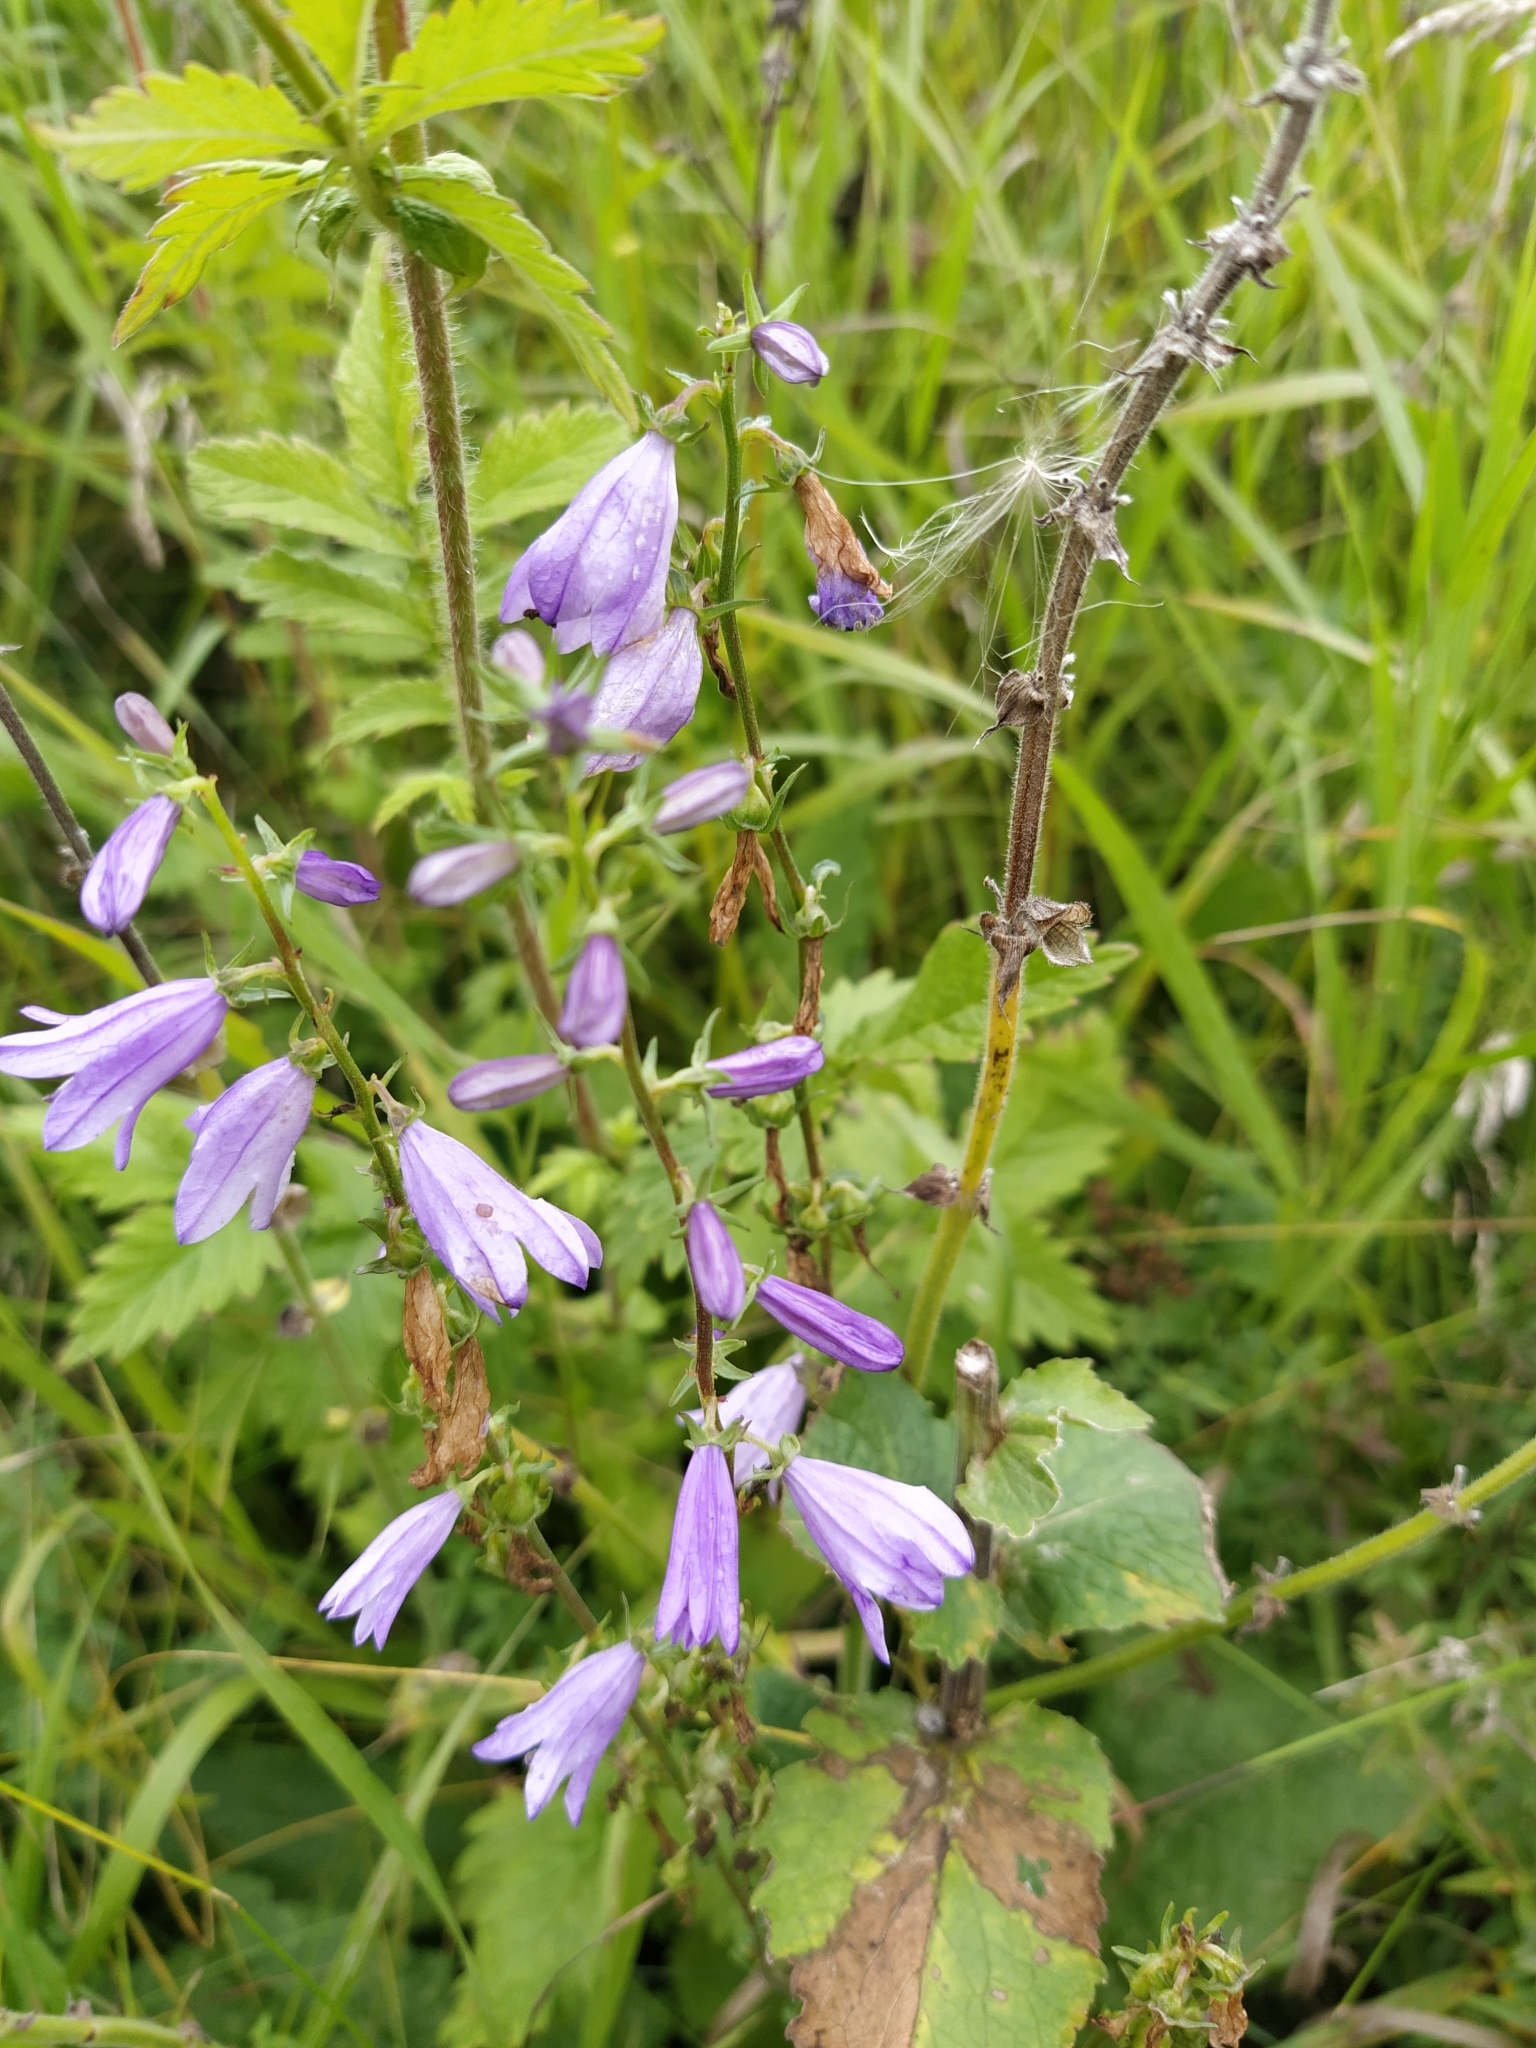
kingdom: Plantae
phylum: Tracheophyta
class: Magnoliopsida
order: Asterales
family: Campanulaceae
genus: Campanula
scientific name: Campanula rapunculoides
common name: Creeping bellflower
